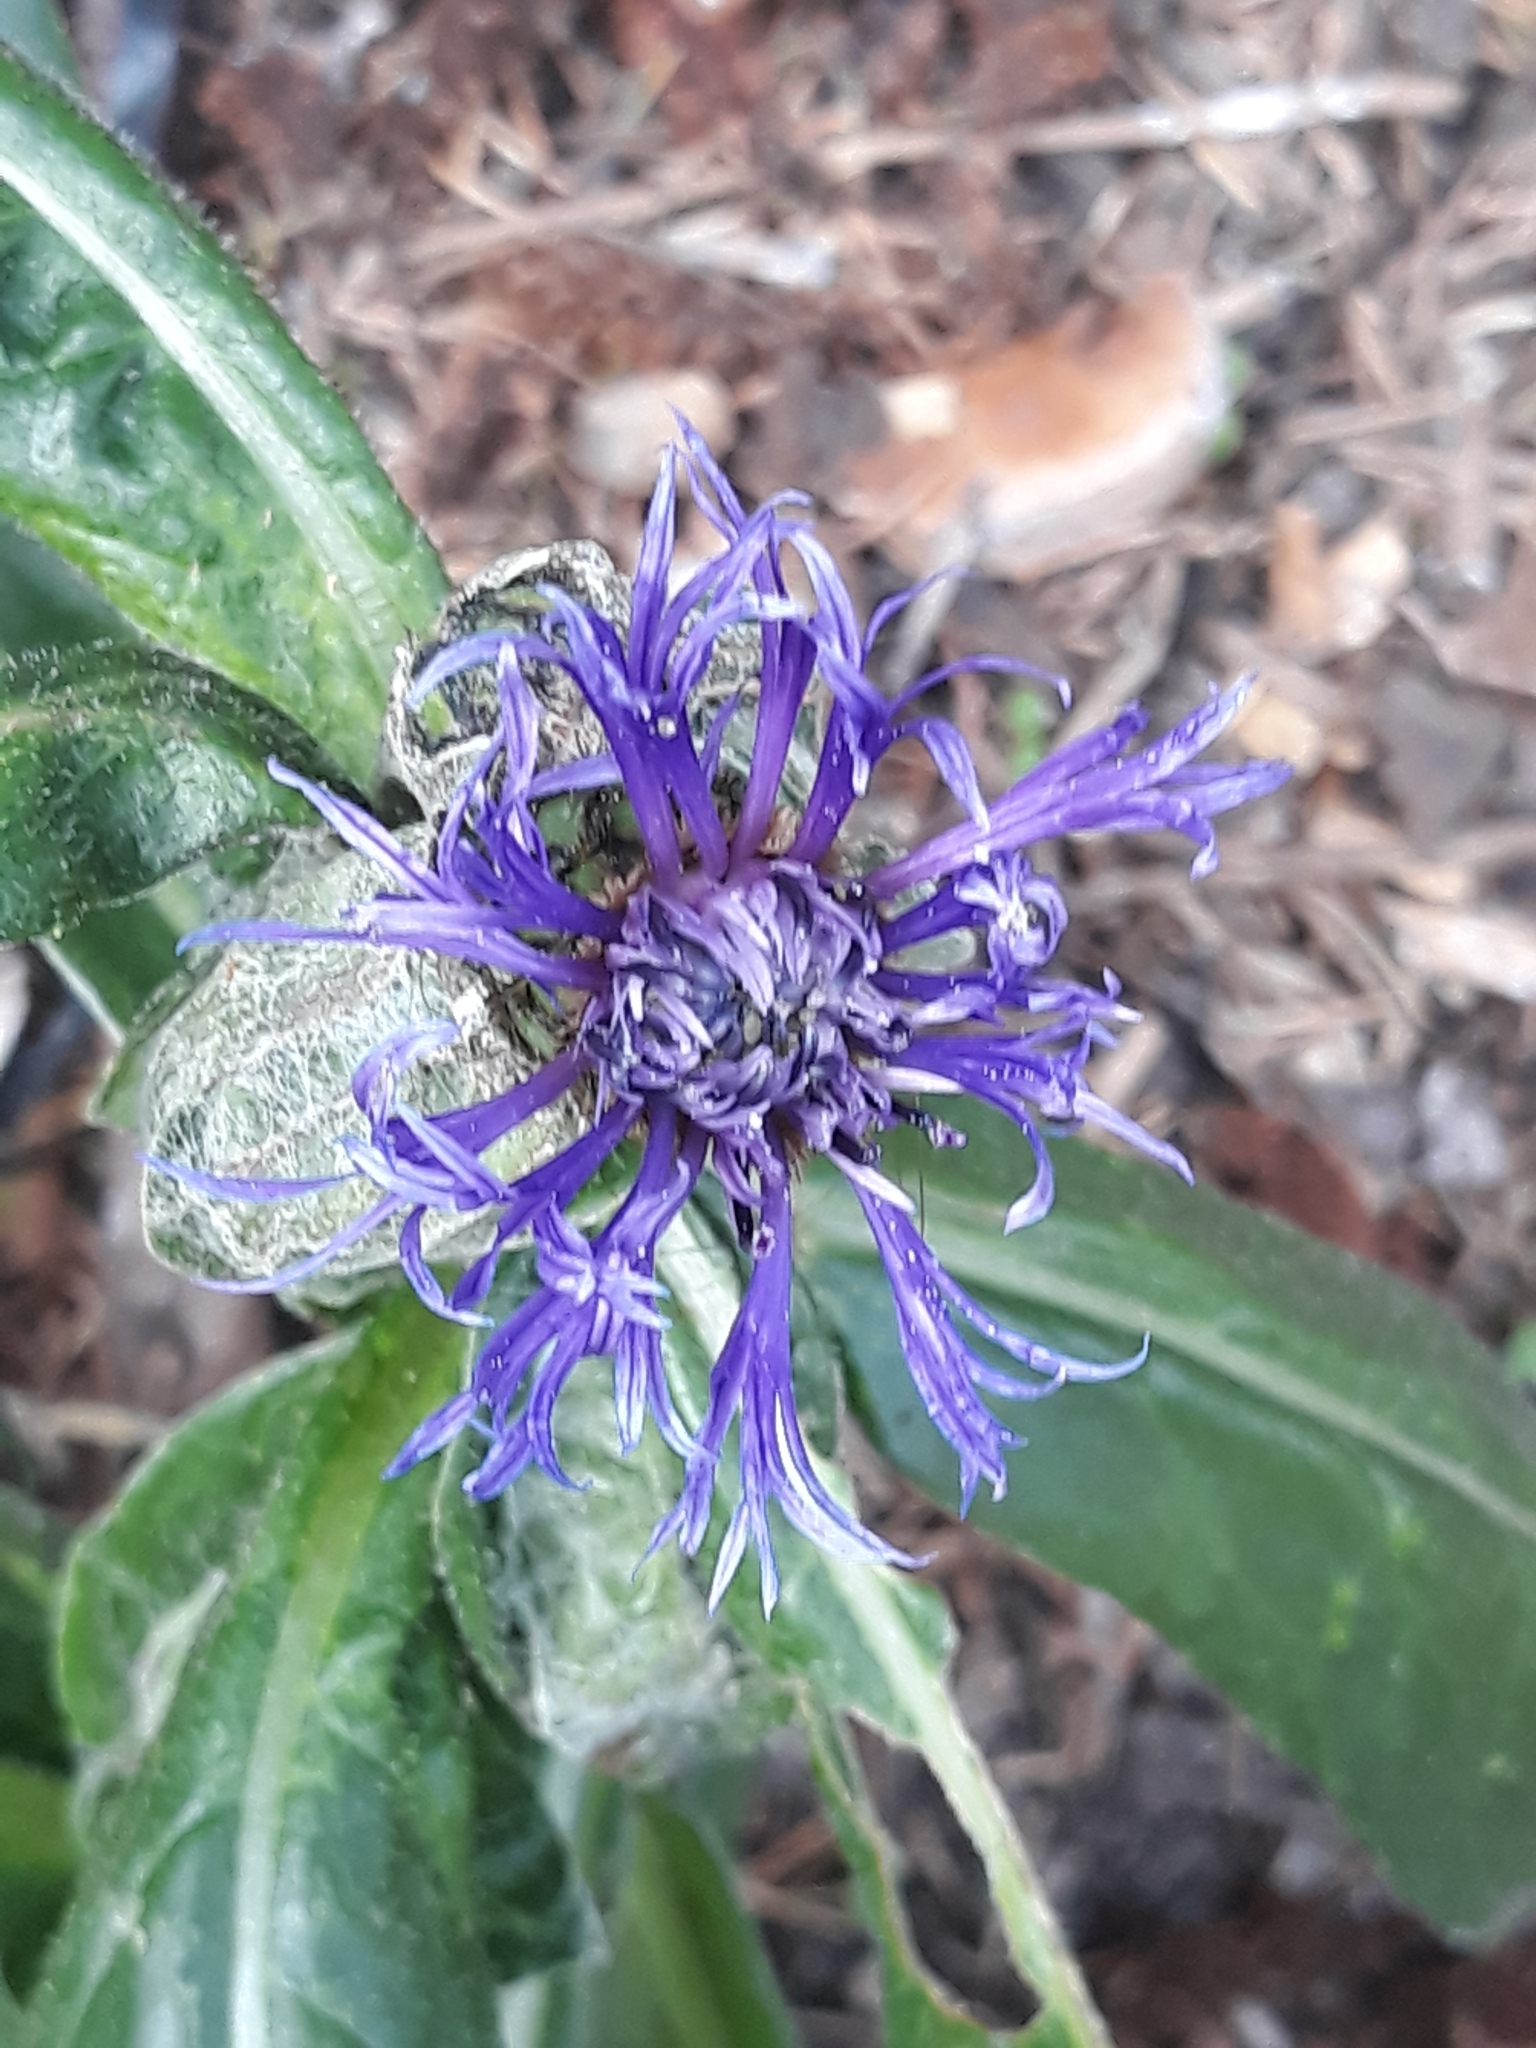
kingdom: Plantae
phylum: Tracheophyta
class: Magnoliopsida
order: Asterales
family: Asteraceae
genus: Centaurea
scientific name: Centaurea montana
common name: Perennial cornflower
